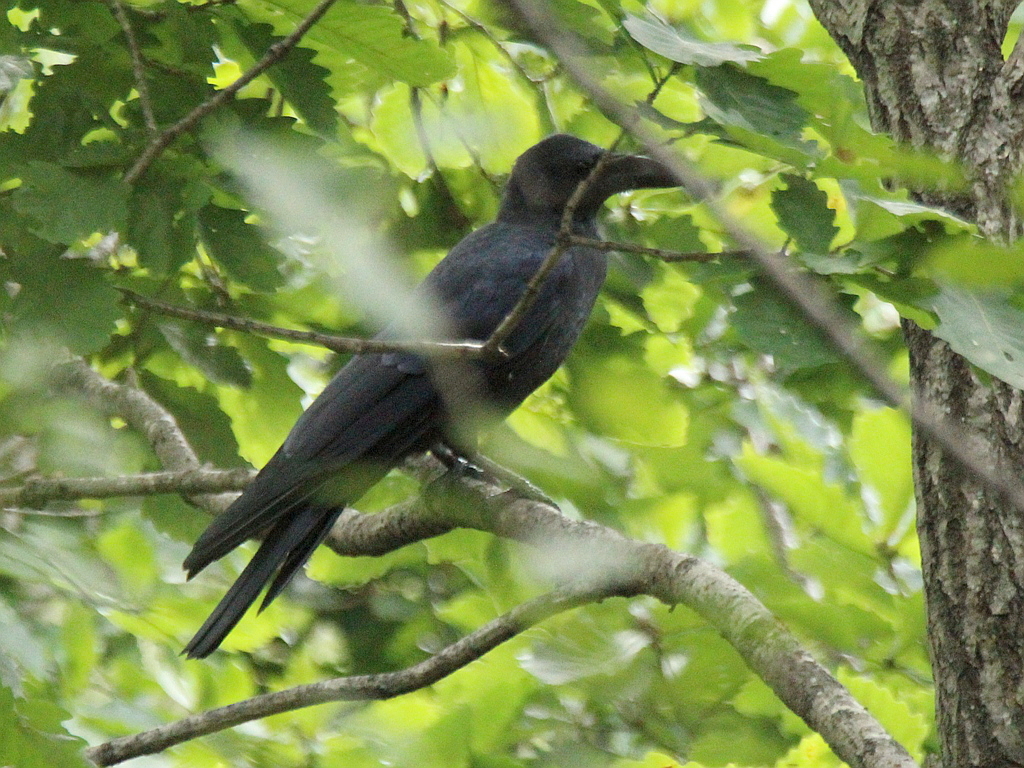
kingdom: Animalia
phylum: Chordata
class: Aves
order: Passeriformes
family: Corvidae
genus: Corvus
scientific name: Corvus macrorhynchos
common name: Large-billed crow
